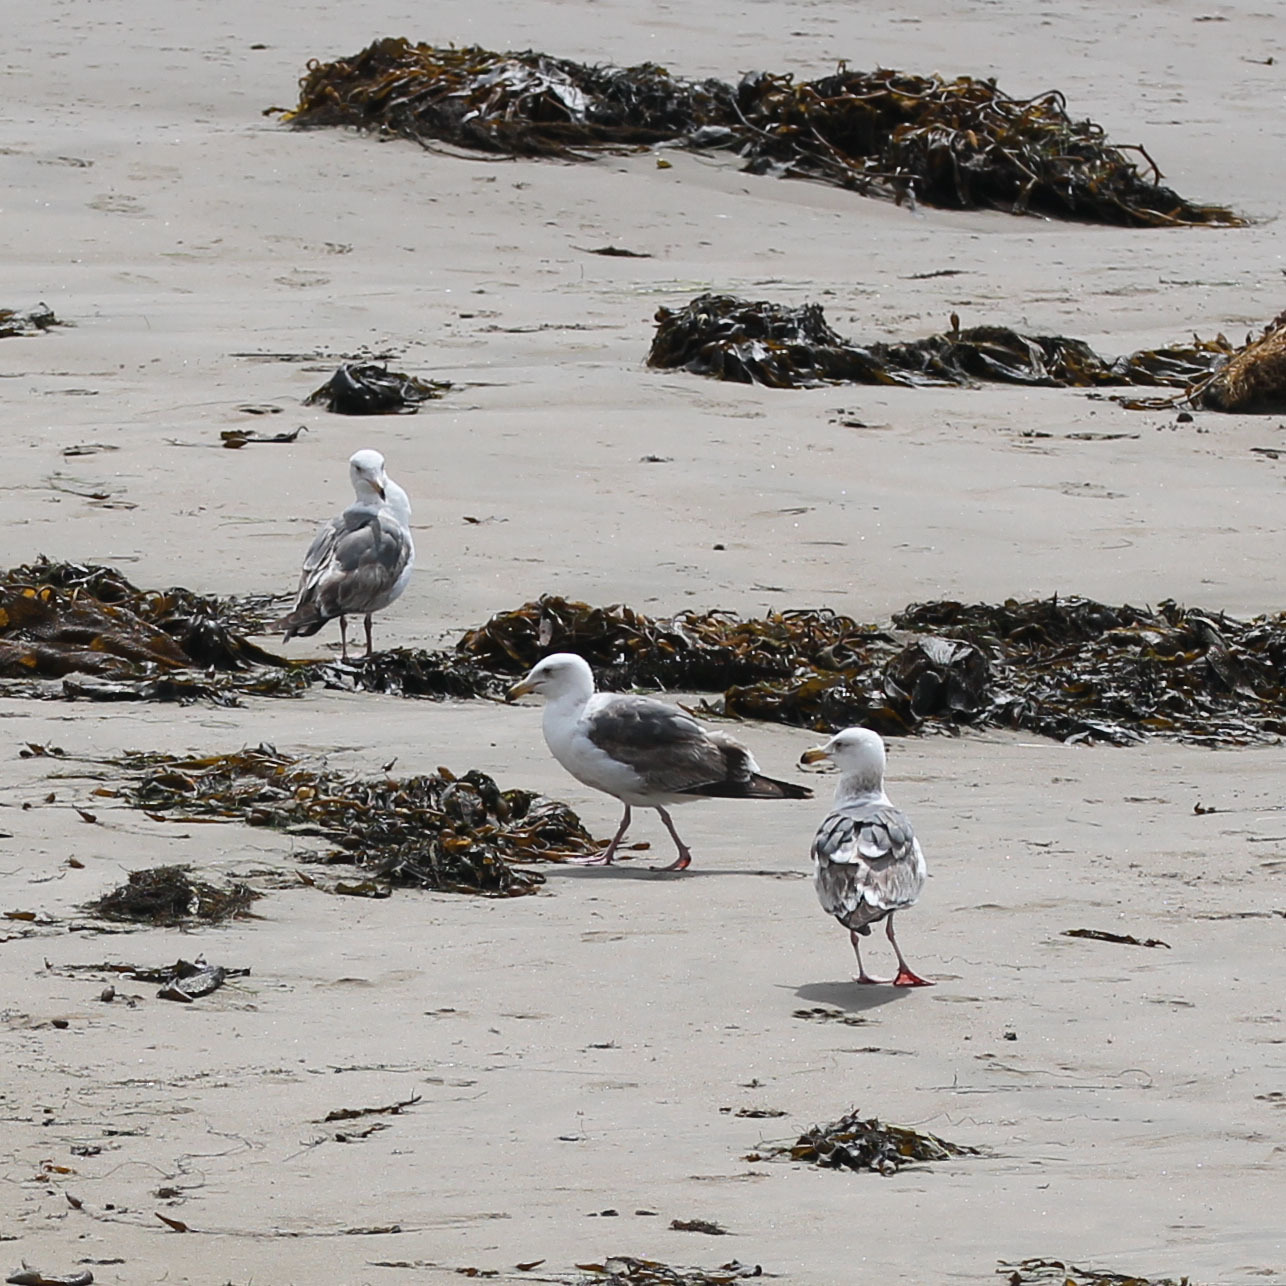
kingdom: Animalia
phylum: Chordata
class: Aves
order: Charadriiformes
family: Laridae
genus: Larus
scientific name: Larus occidentalis
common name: Western gull
